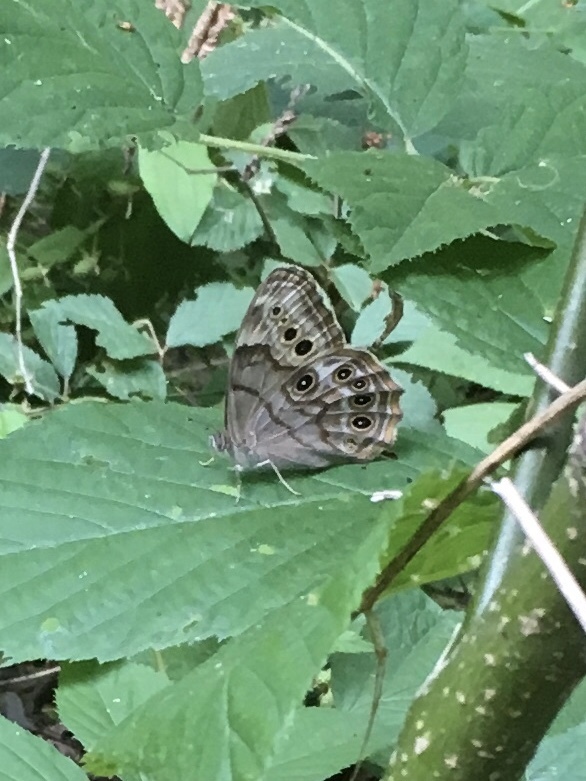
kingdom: Animalia
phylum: Arthropoda
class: Insecta
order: Lepidoptera
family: Nymphalidae
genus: Lethe
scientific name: Lethe anthedon
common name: Northern pearly-eye
